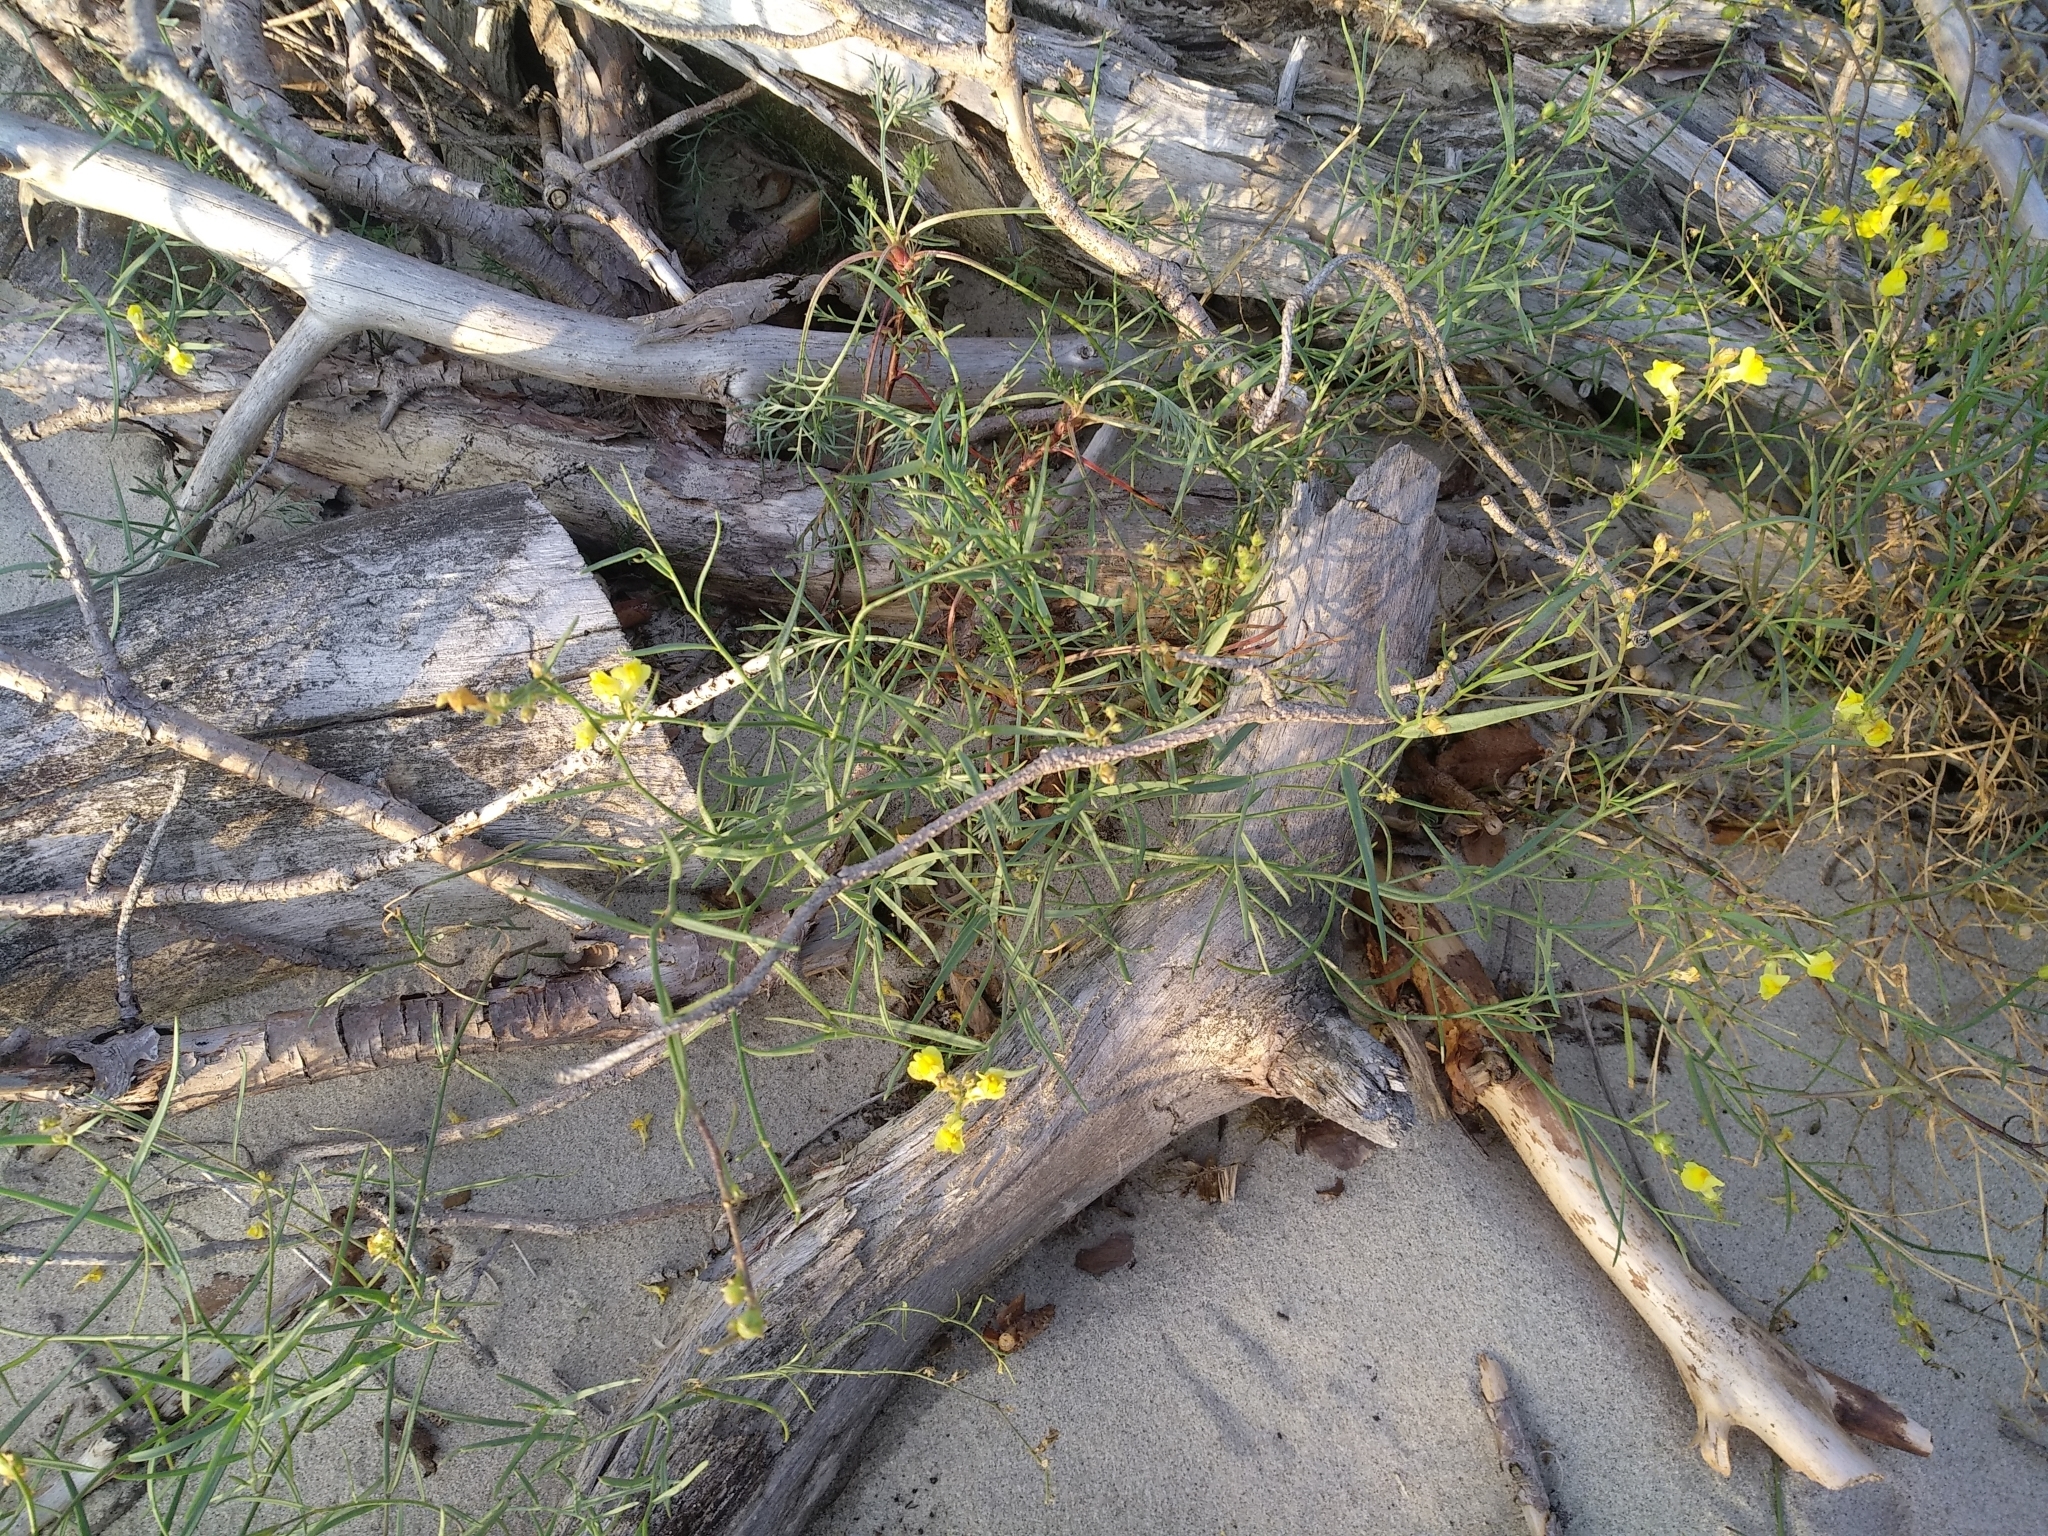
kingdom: Plantae
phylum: Tracheophyta
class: Magnoliopsida
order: Lamiales
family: Plantaginaceae
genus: Linaria
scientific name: Linaria vulgaris
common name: Butter and eggs
